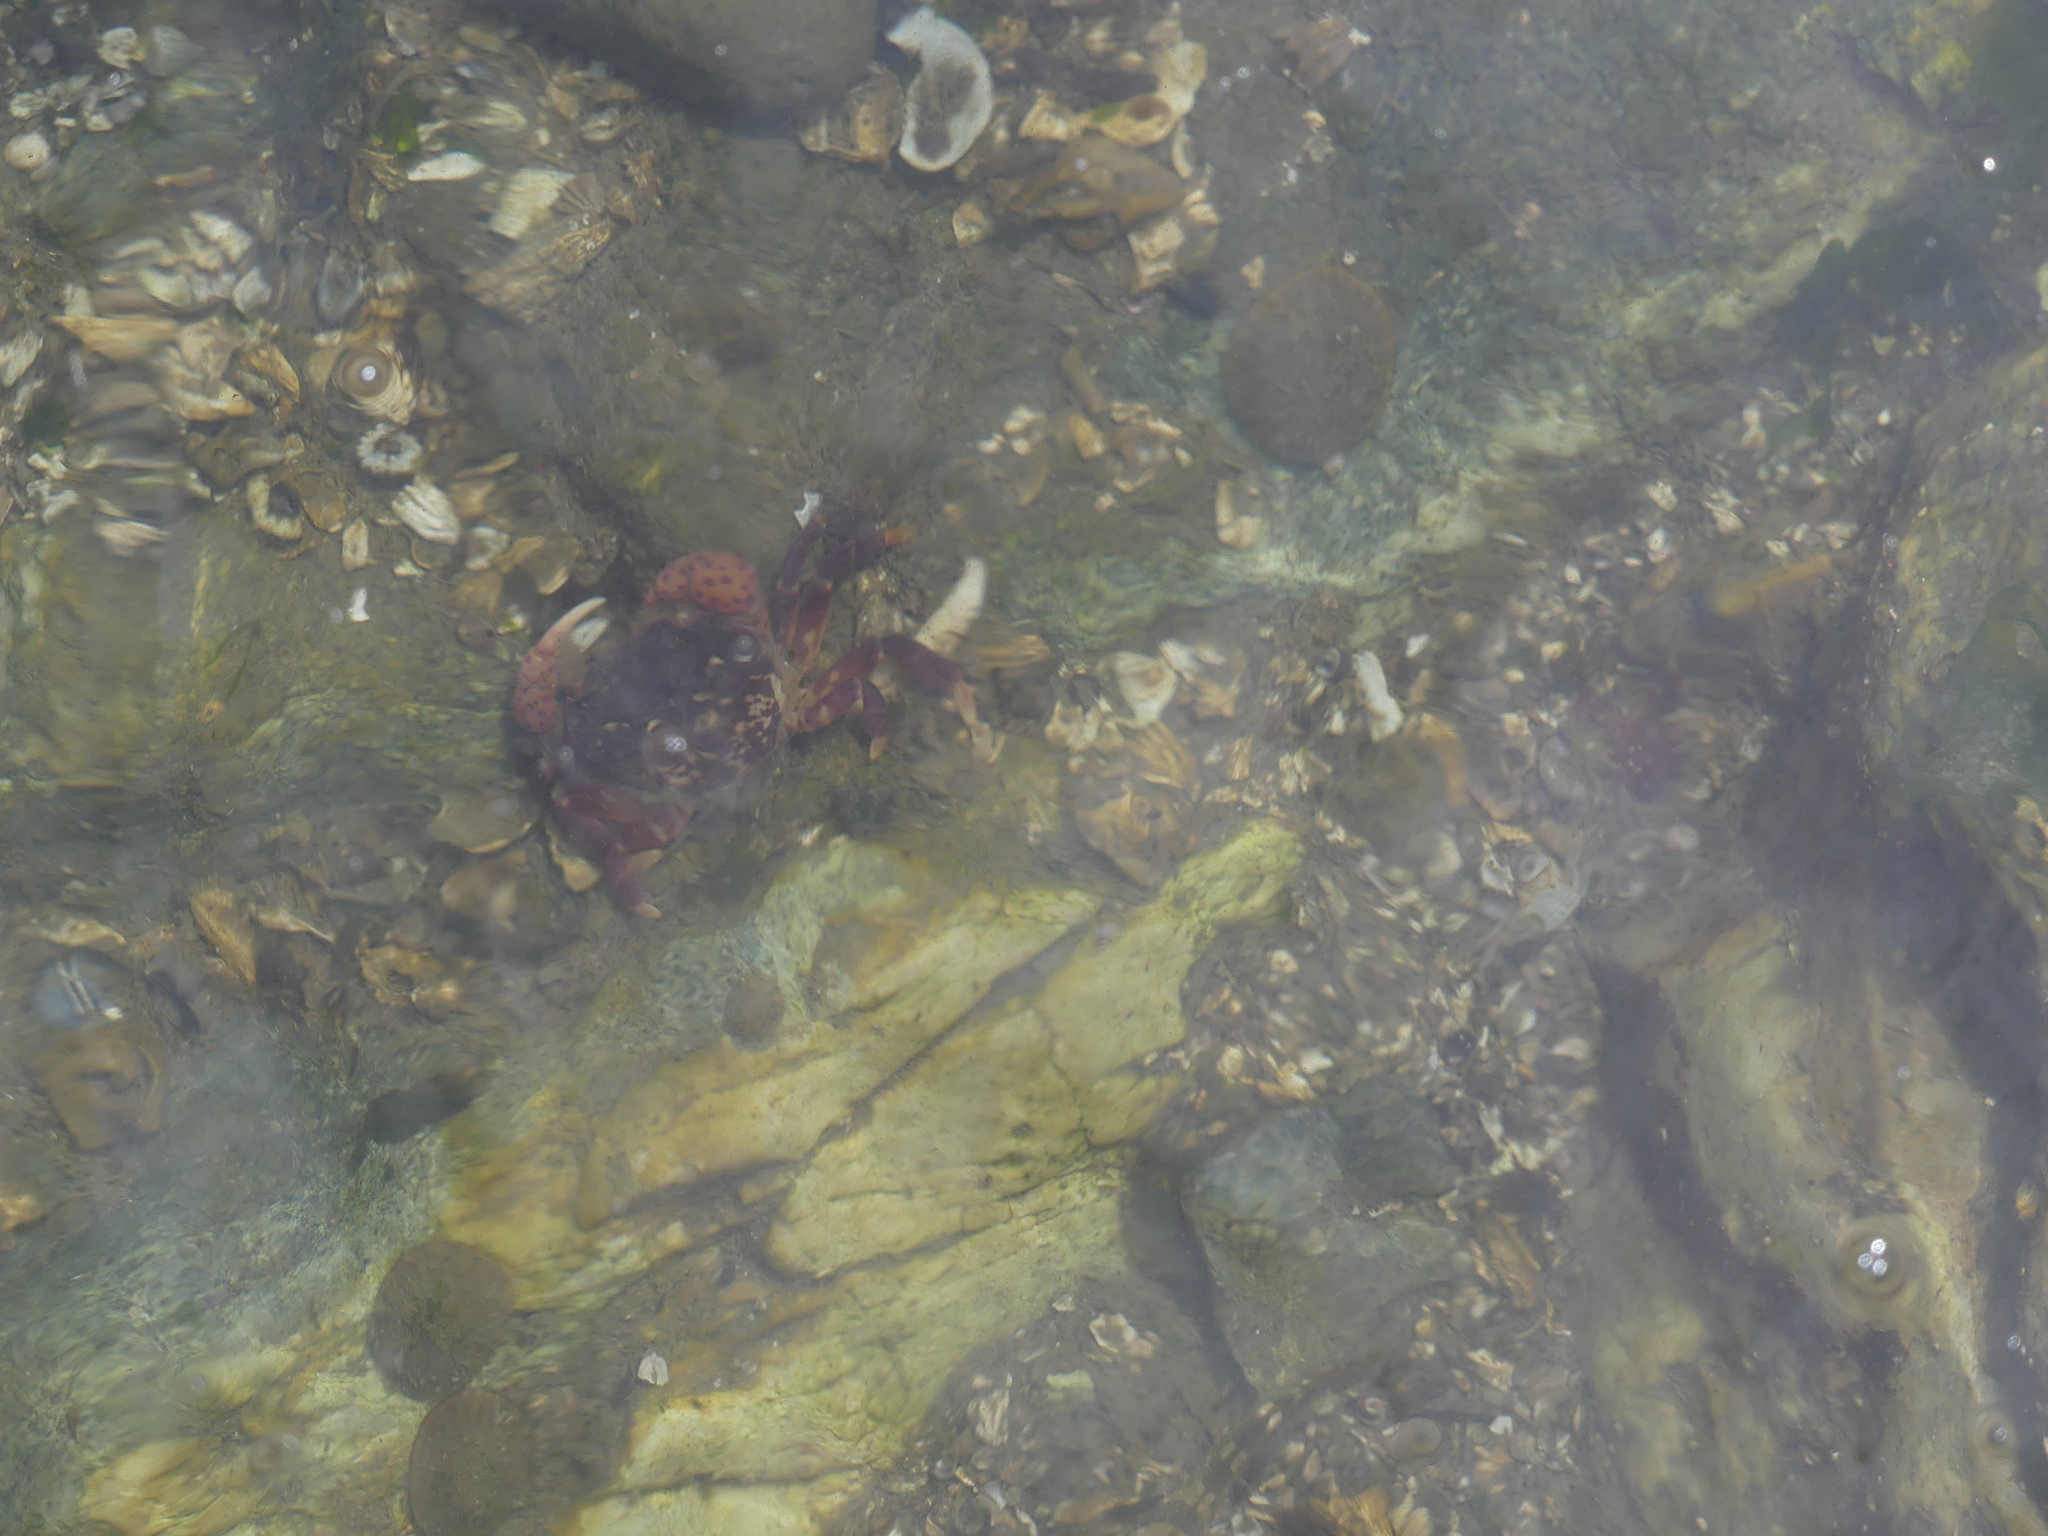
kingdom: Animalia
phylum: Arthropoda
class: Malacostraca
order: Decapoda
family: Varunidae
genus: Hemigrapsus
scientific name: Hemigrapsus nudus
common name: Purple shore crab
